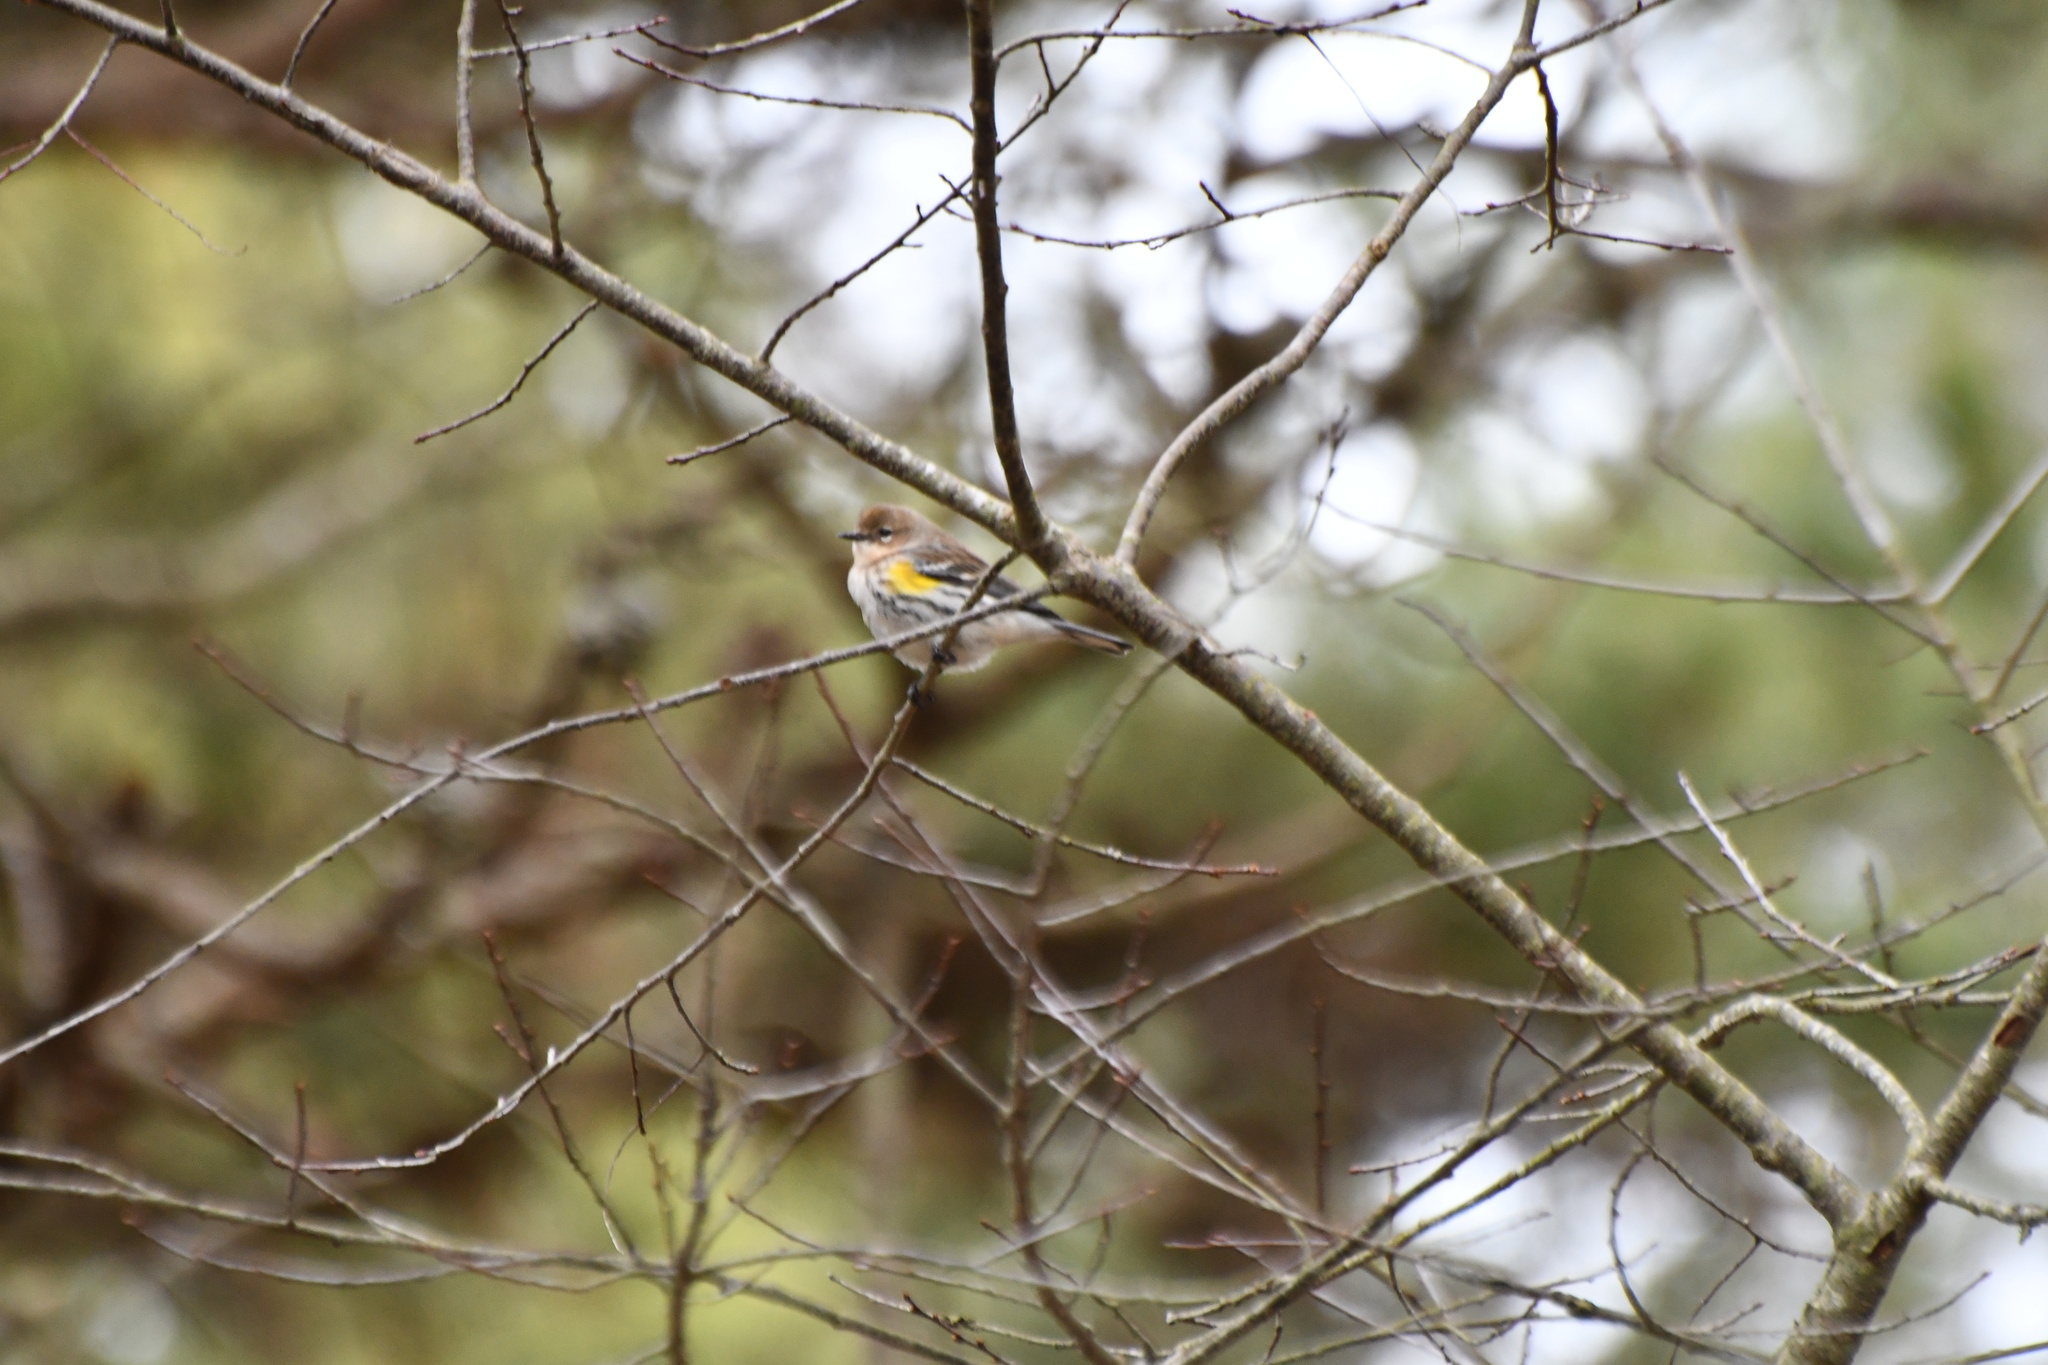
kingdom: Animalia
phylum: Chordata
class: Aves
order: Passeriformes
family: Parulidae
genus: Setophaga
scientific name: Setophaga coronata
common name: Myrtle warbler
